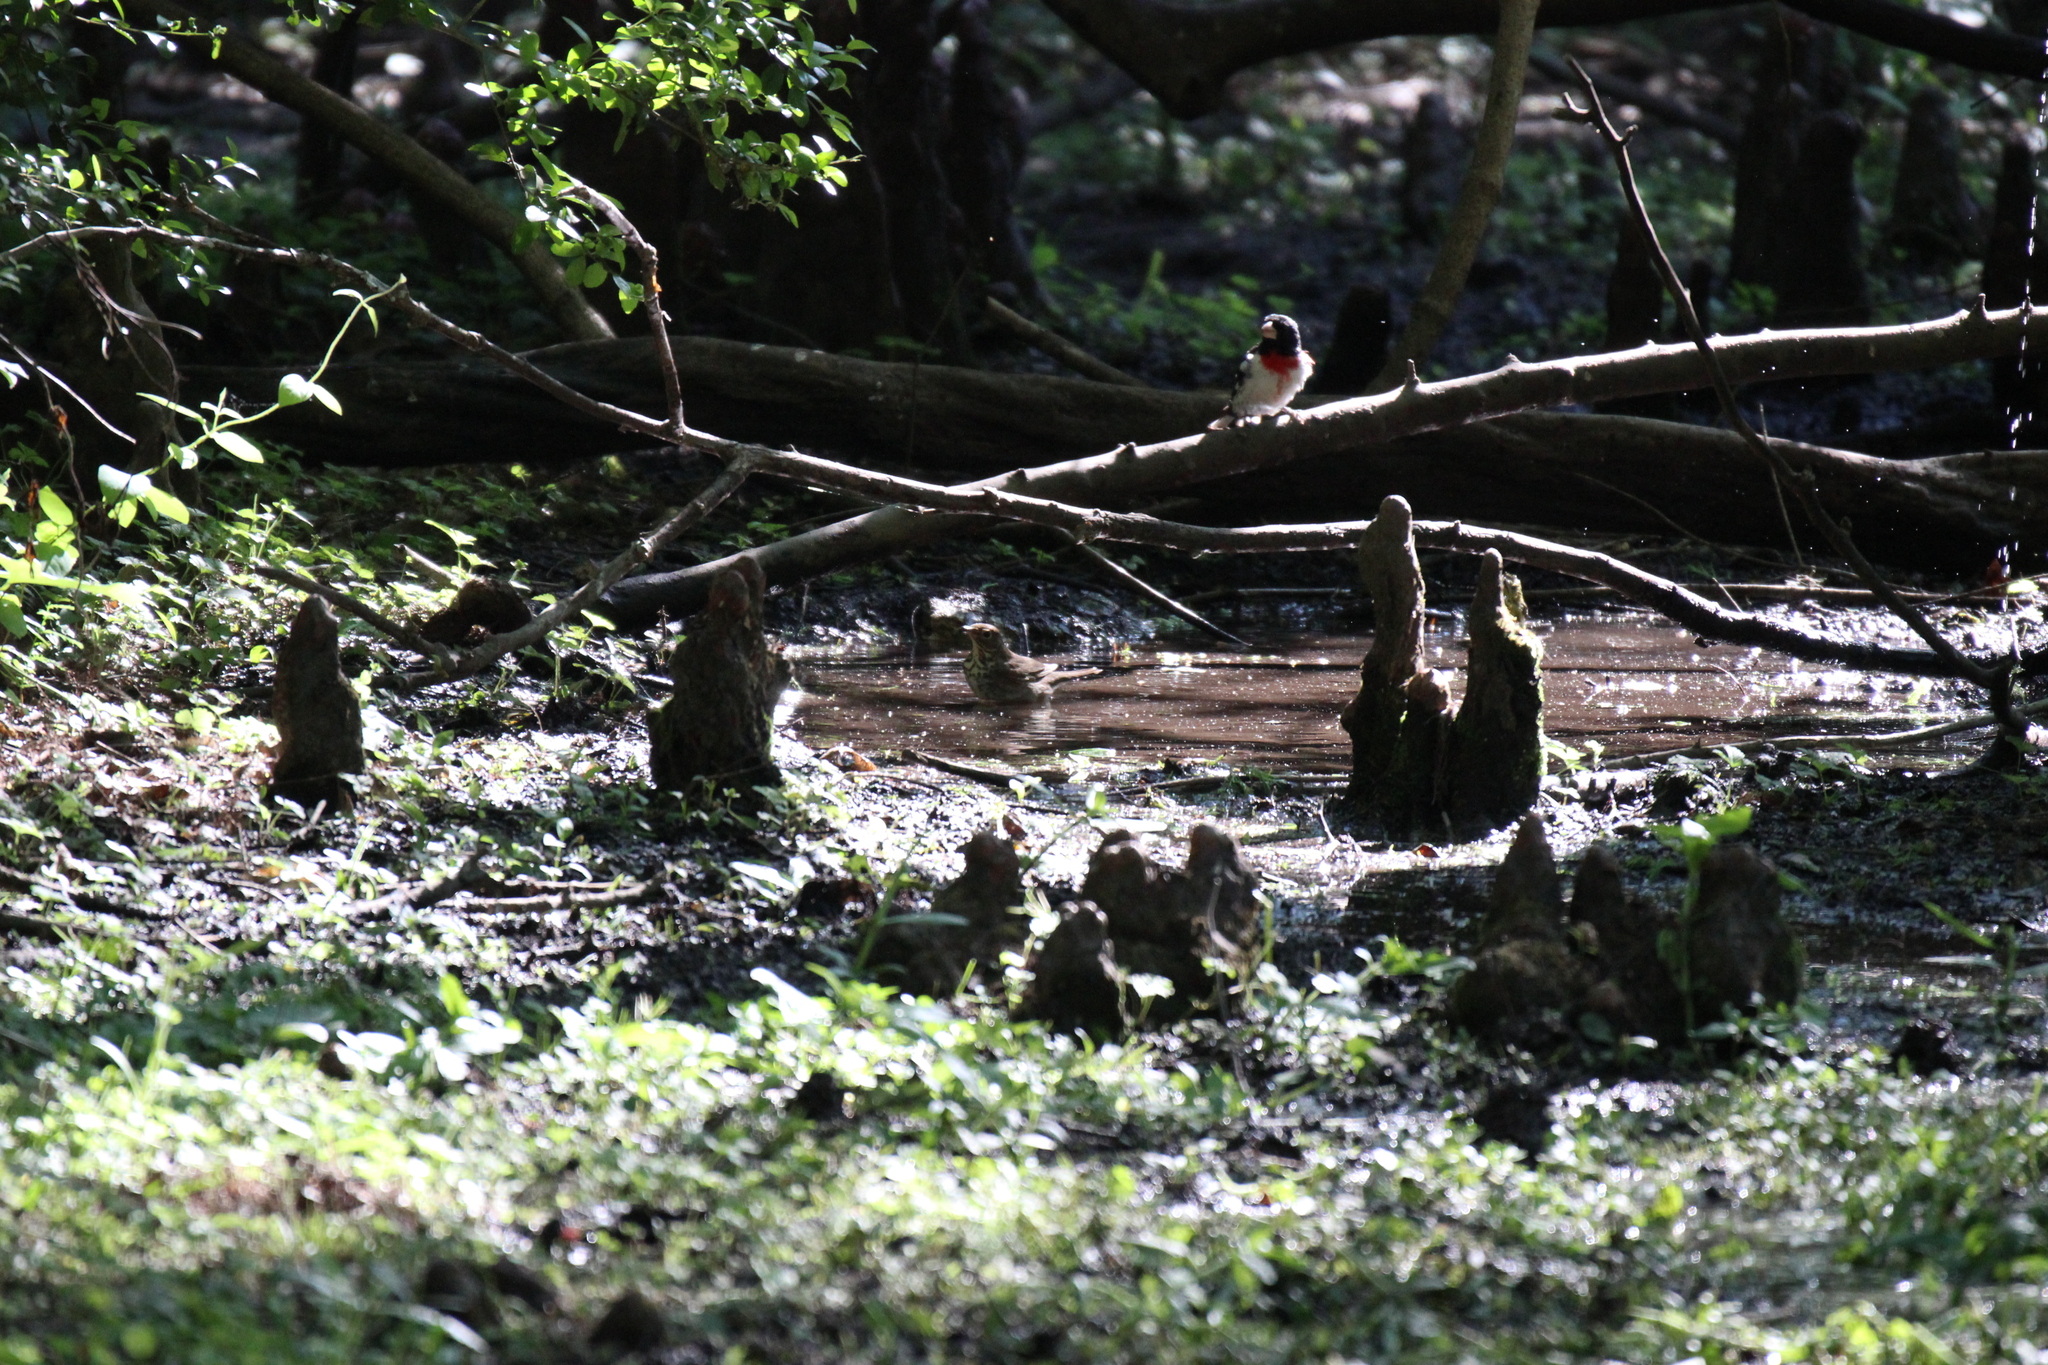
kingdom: Animalia
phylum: Chordata
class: Aves
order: Passeriformes
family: Cardinalidae
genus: Pheucticus
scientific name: Pheucticus ludovicianus
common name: Rose-breasted grosbeak
